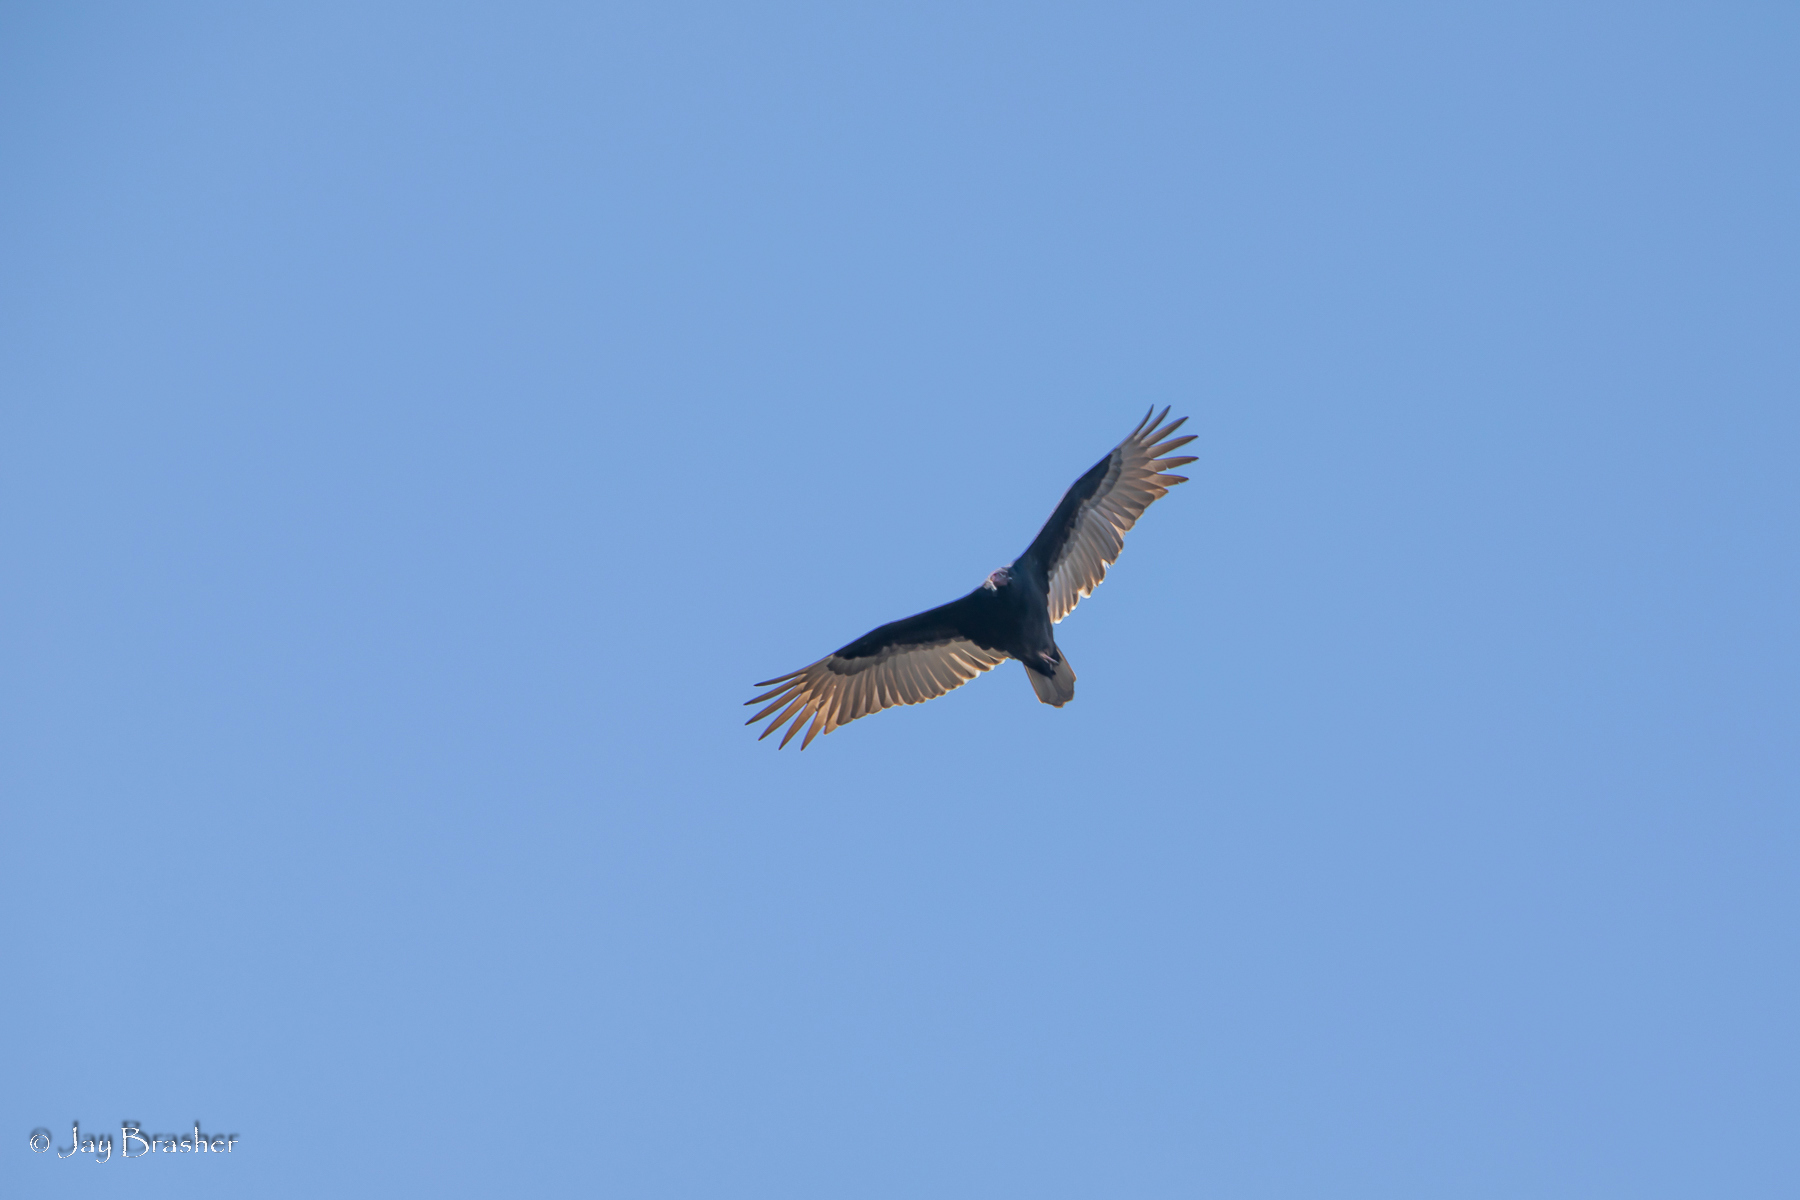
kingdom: Animalia
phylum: Chordata
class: Aves
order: Accipitriformes
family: Cathartidae
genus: Cathartes
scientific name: Cathartes aura
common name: Turkey vulture
